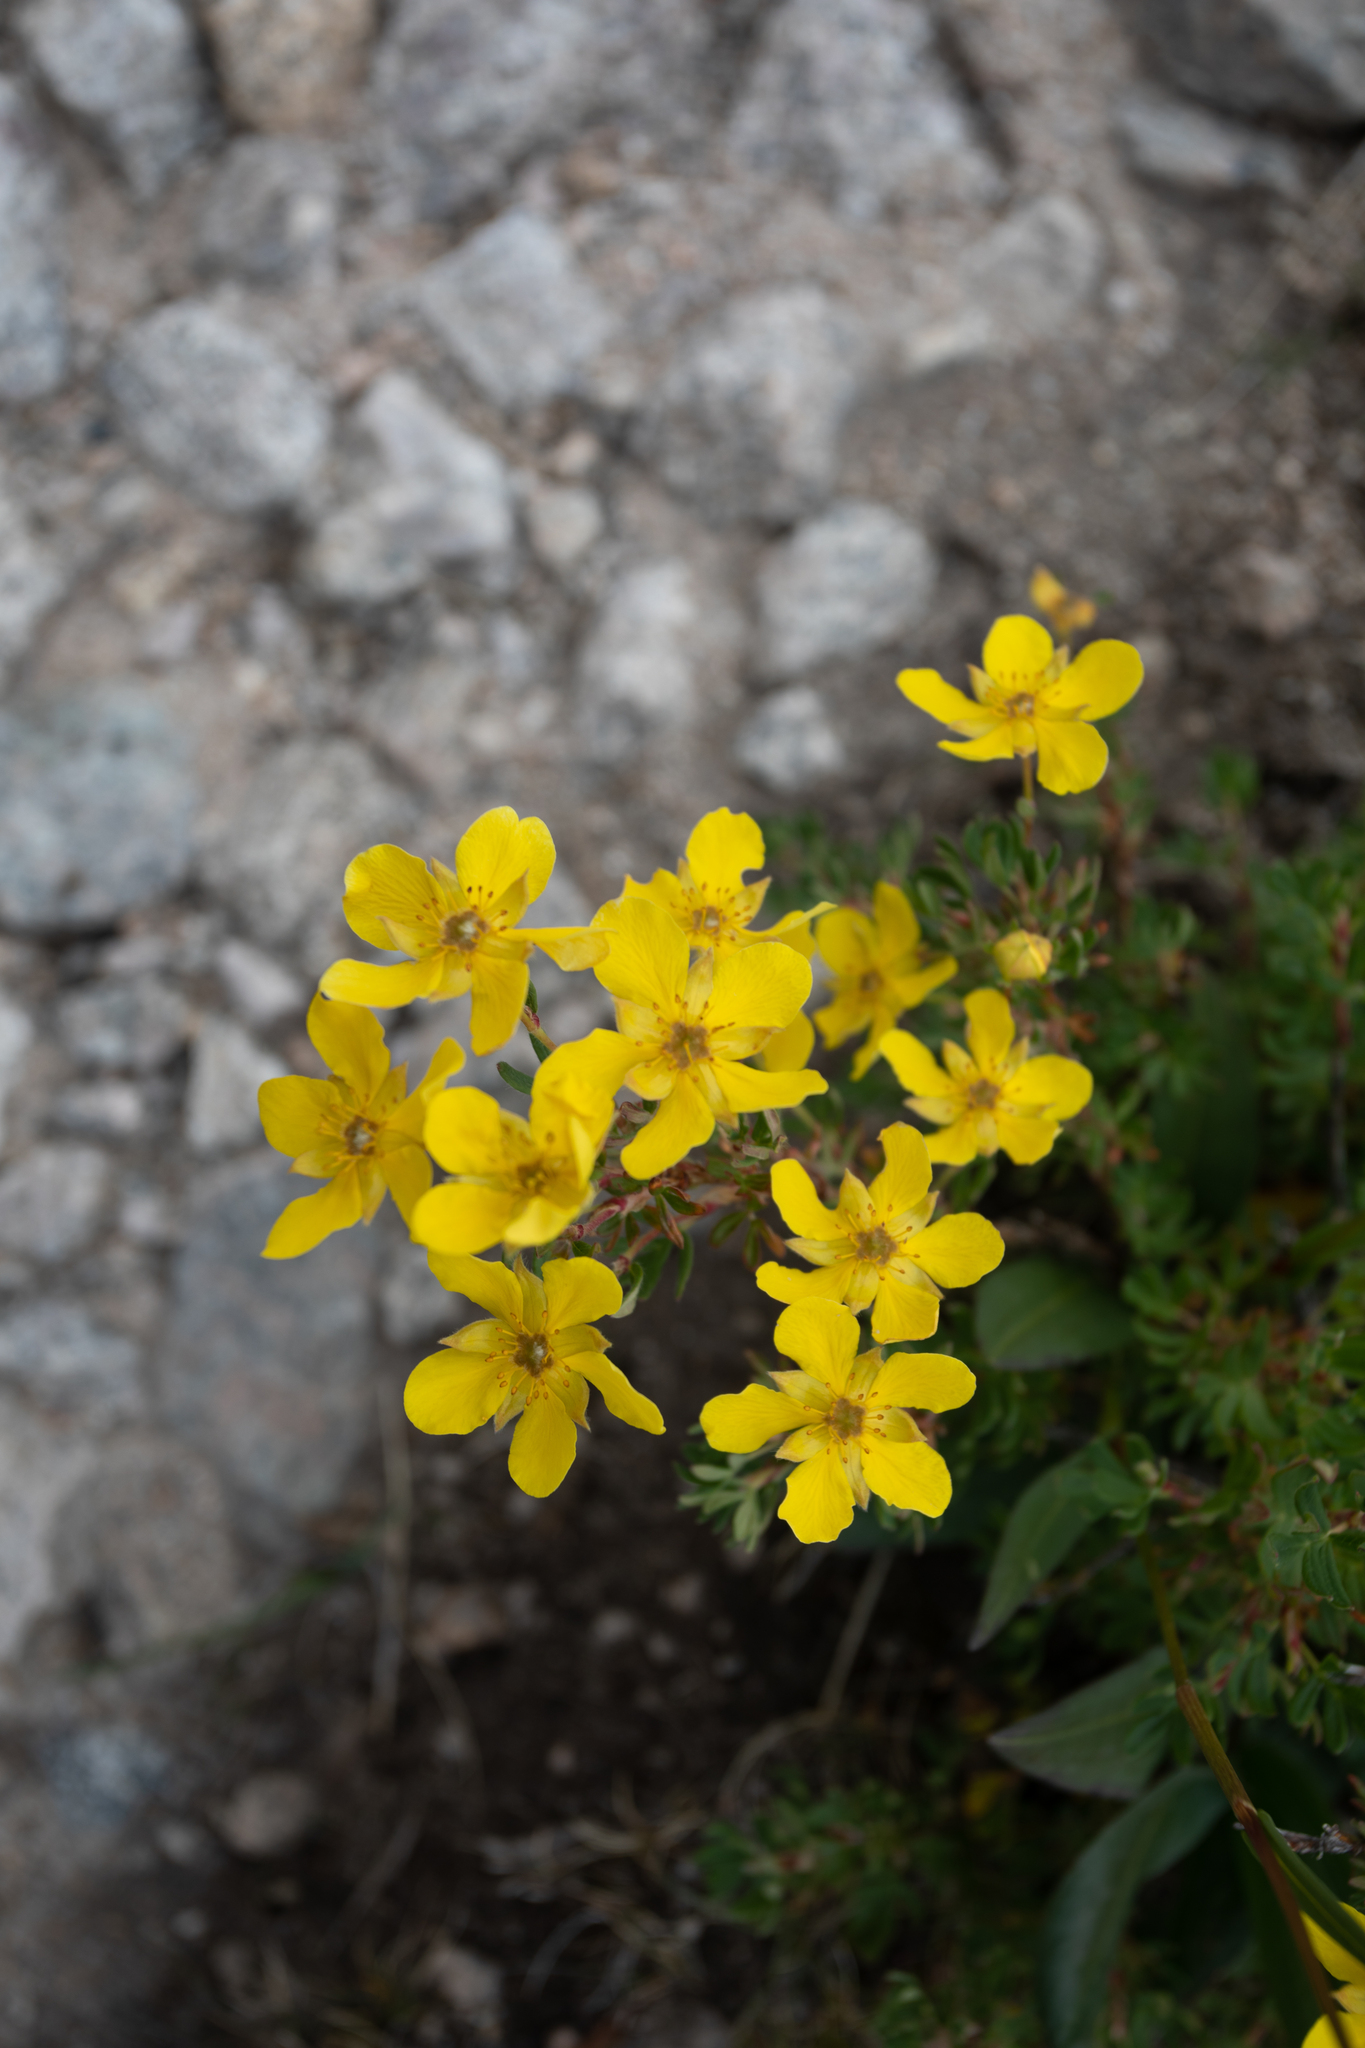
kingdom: Plantae
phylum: Tracheophyta
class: Magnoliopsida
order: Rosales
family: Rosaceae
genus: Dasiphora
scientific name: Dasiphora fruticosa
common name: Shrubby cinquefoil
